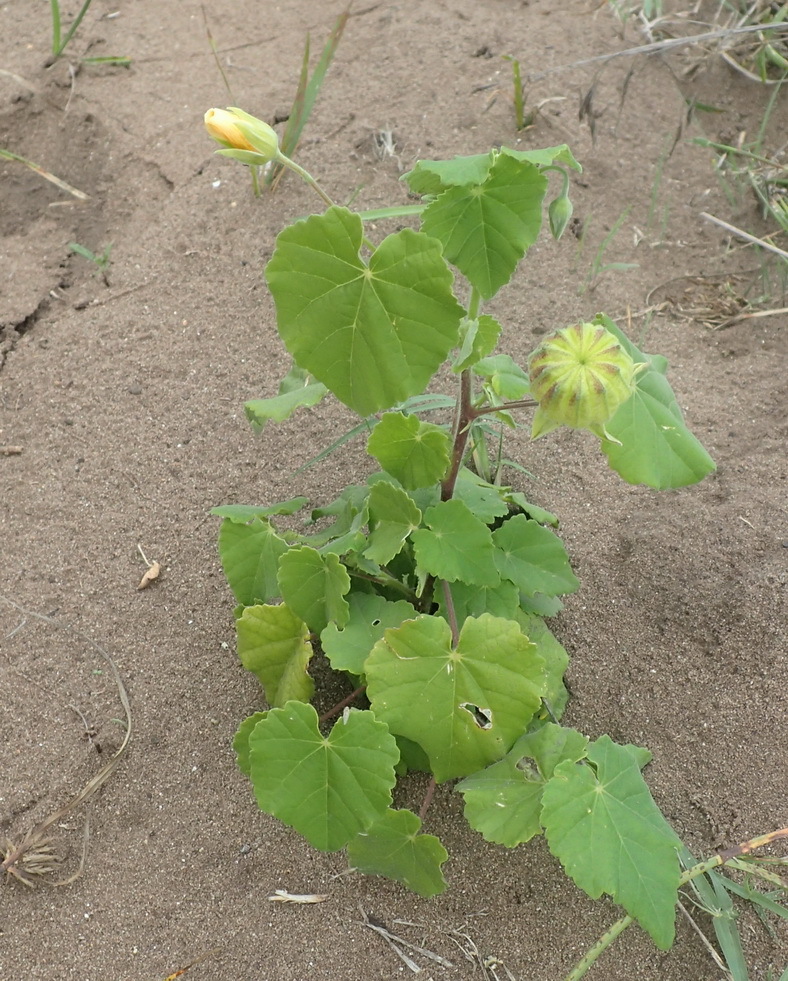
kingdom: Plantae
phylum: Tracheophyta
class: Magnoliopsida
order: Malvales
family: Malvaceae
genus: Abutilon
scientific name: Abutilon sonneratianum
